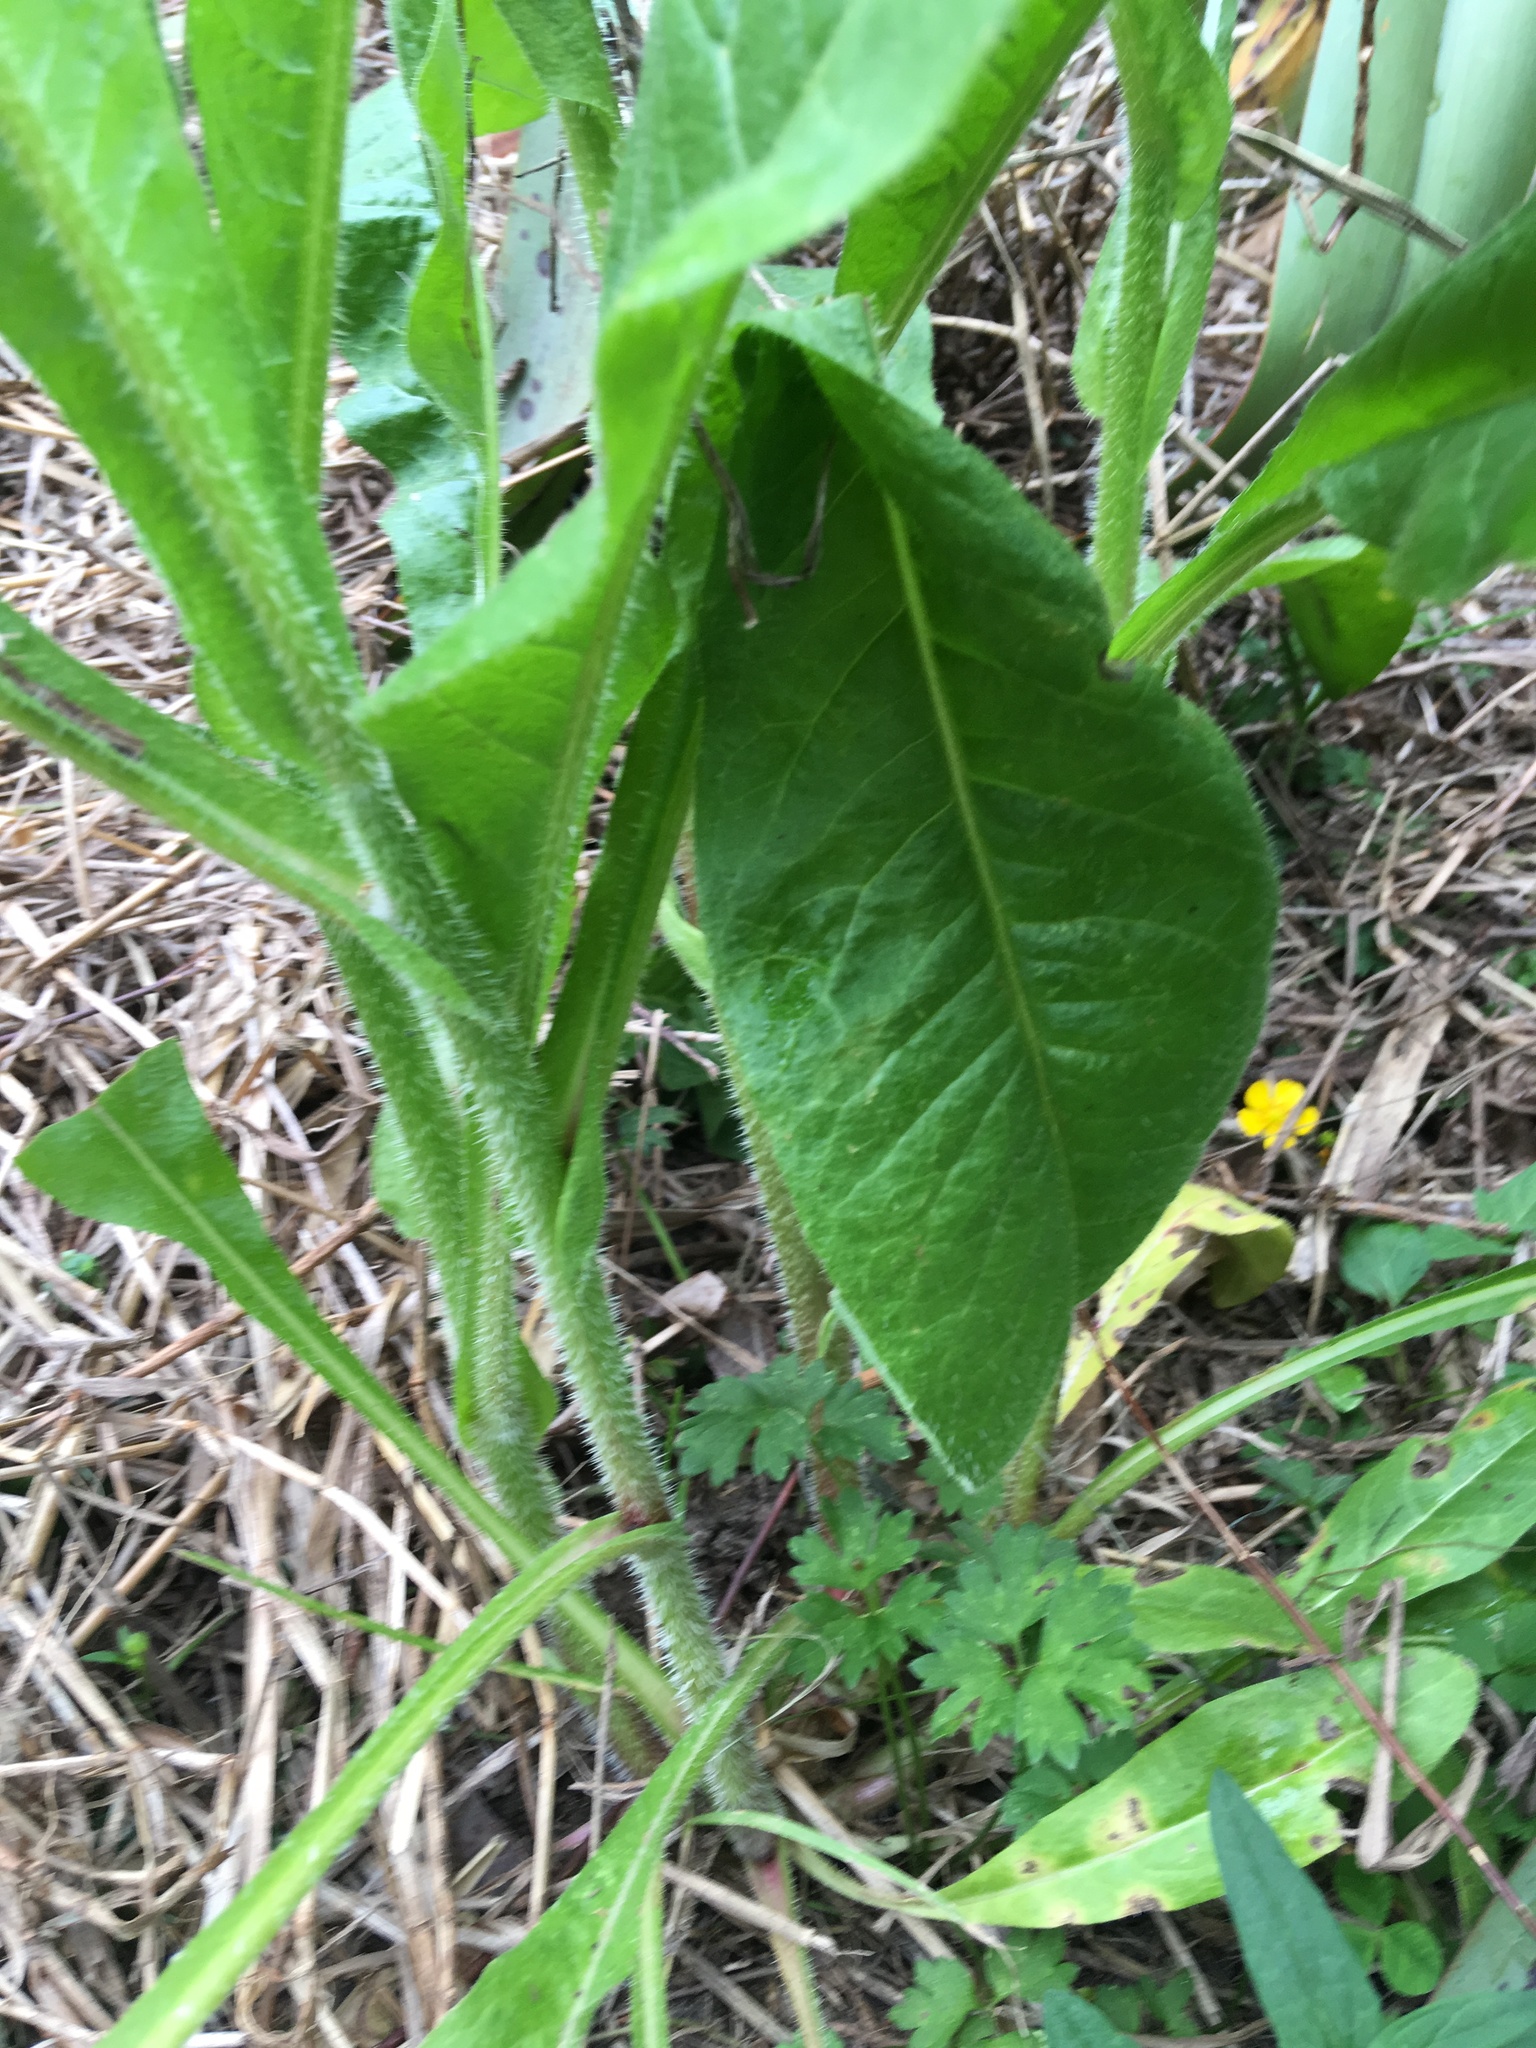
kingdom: Plantae
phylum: Tracheophyta
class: Magnoliopsida
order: Asterales
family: Asteraceae
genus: Helminthotheca
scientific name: Helminthotheca echioides
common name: Ox-tongue
